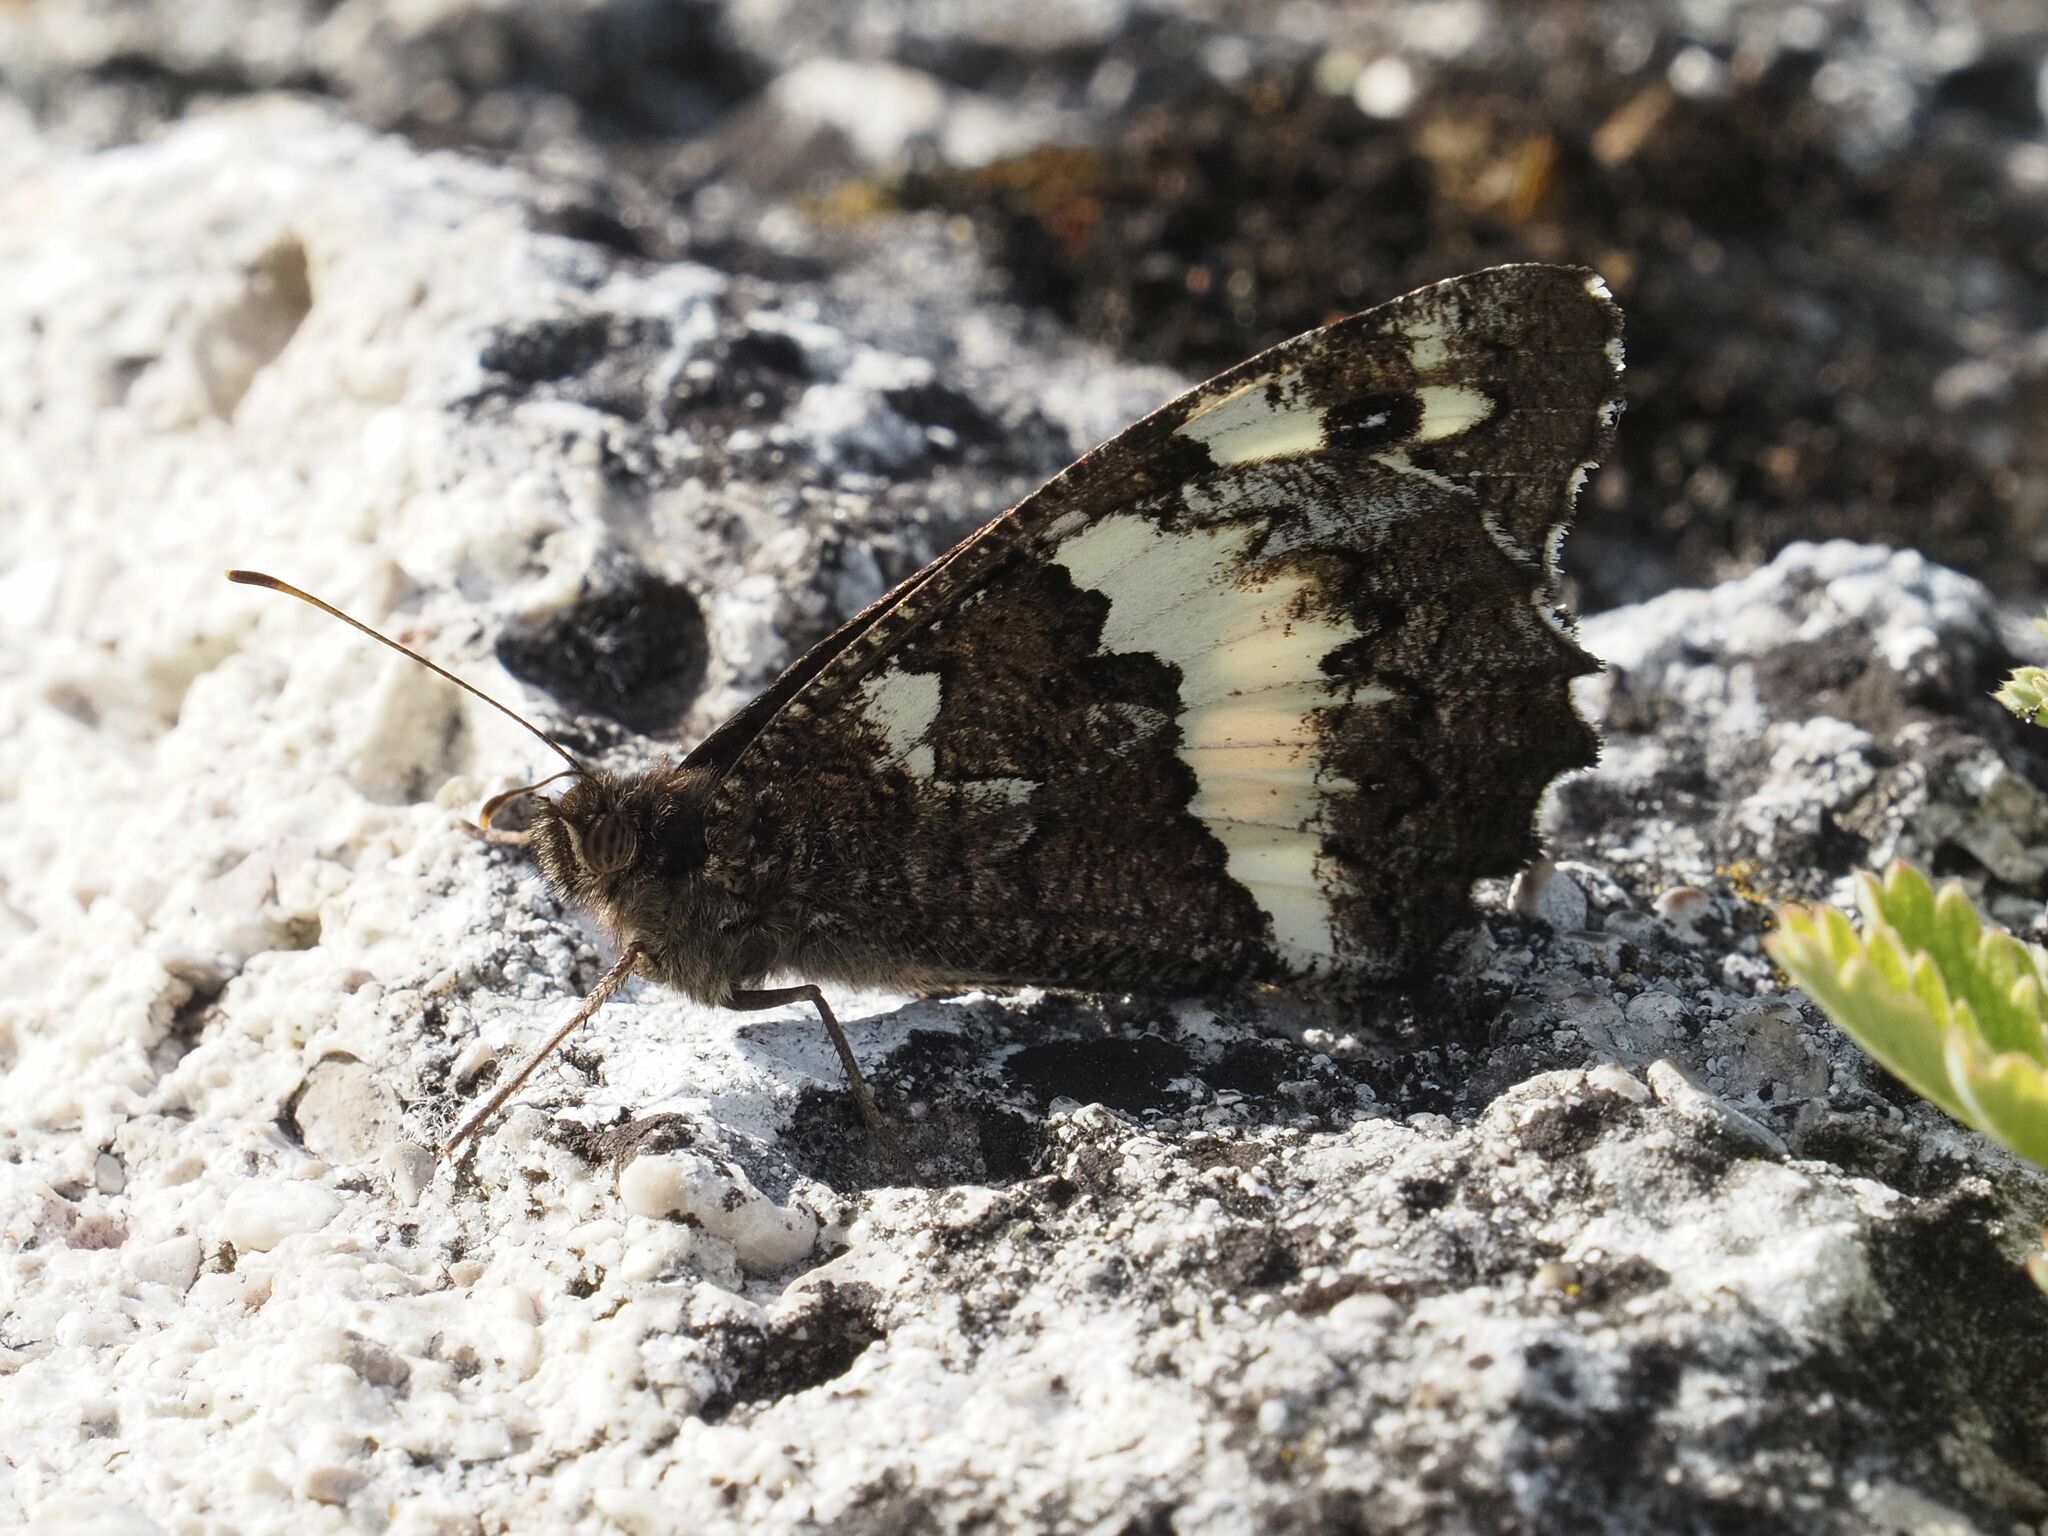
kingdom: Animalia
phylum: Arthropoda
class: Insecta
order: Lepidoptera
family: Lycaenidae
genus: Loweia
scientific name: Loweia tityrus
